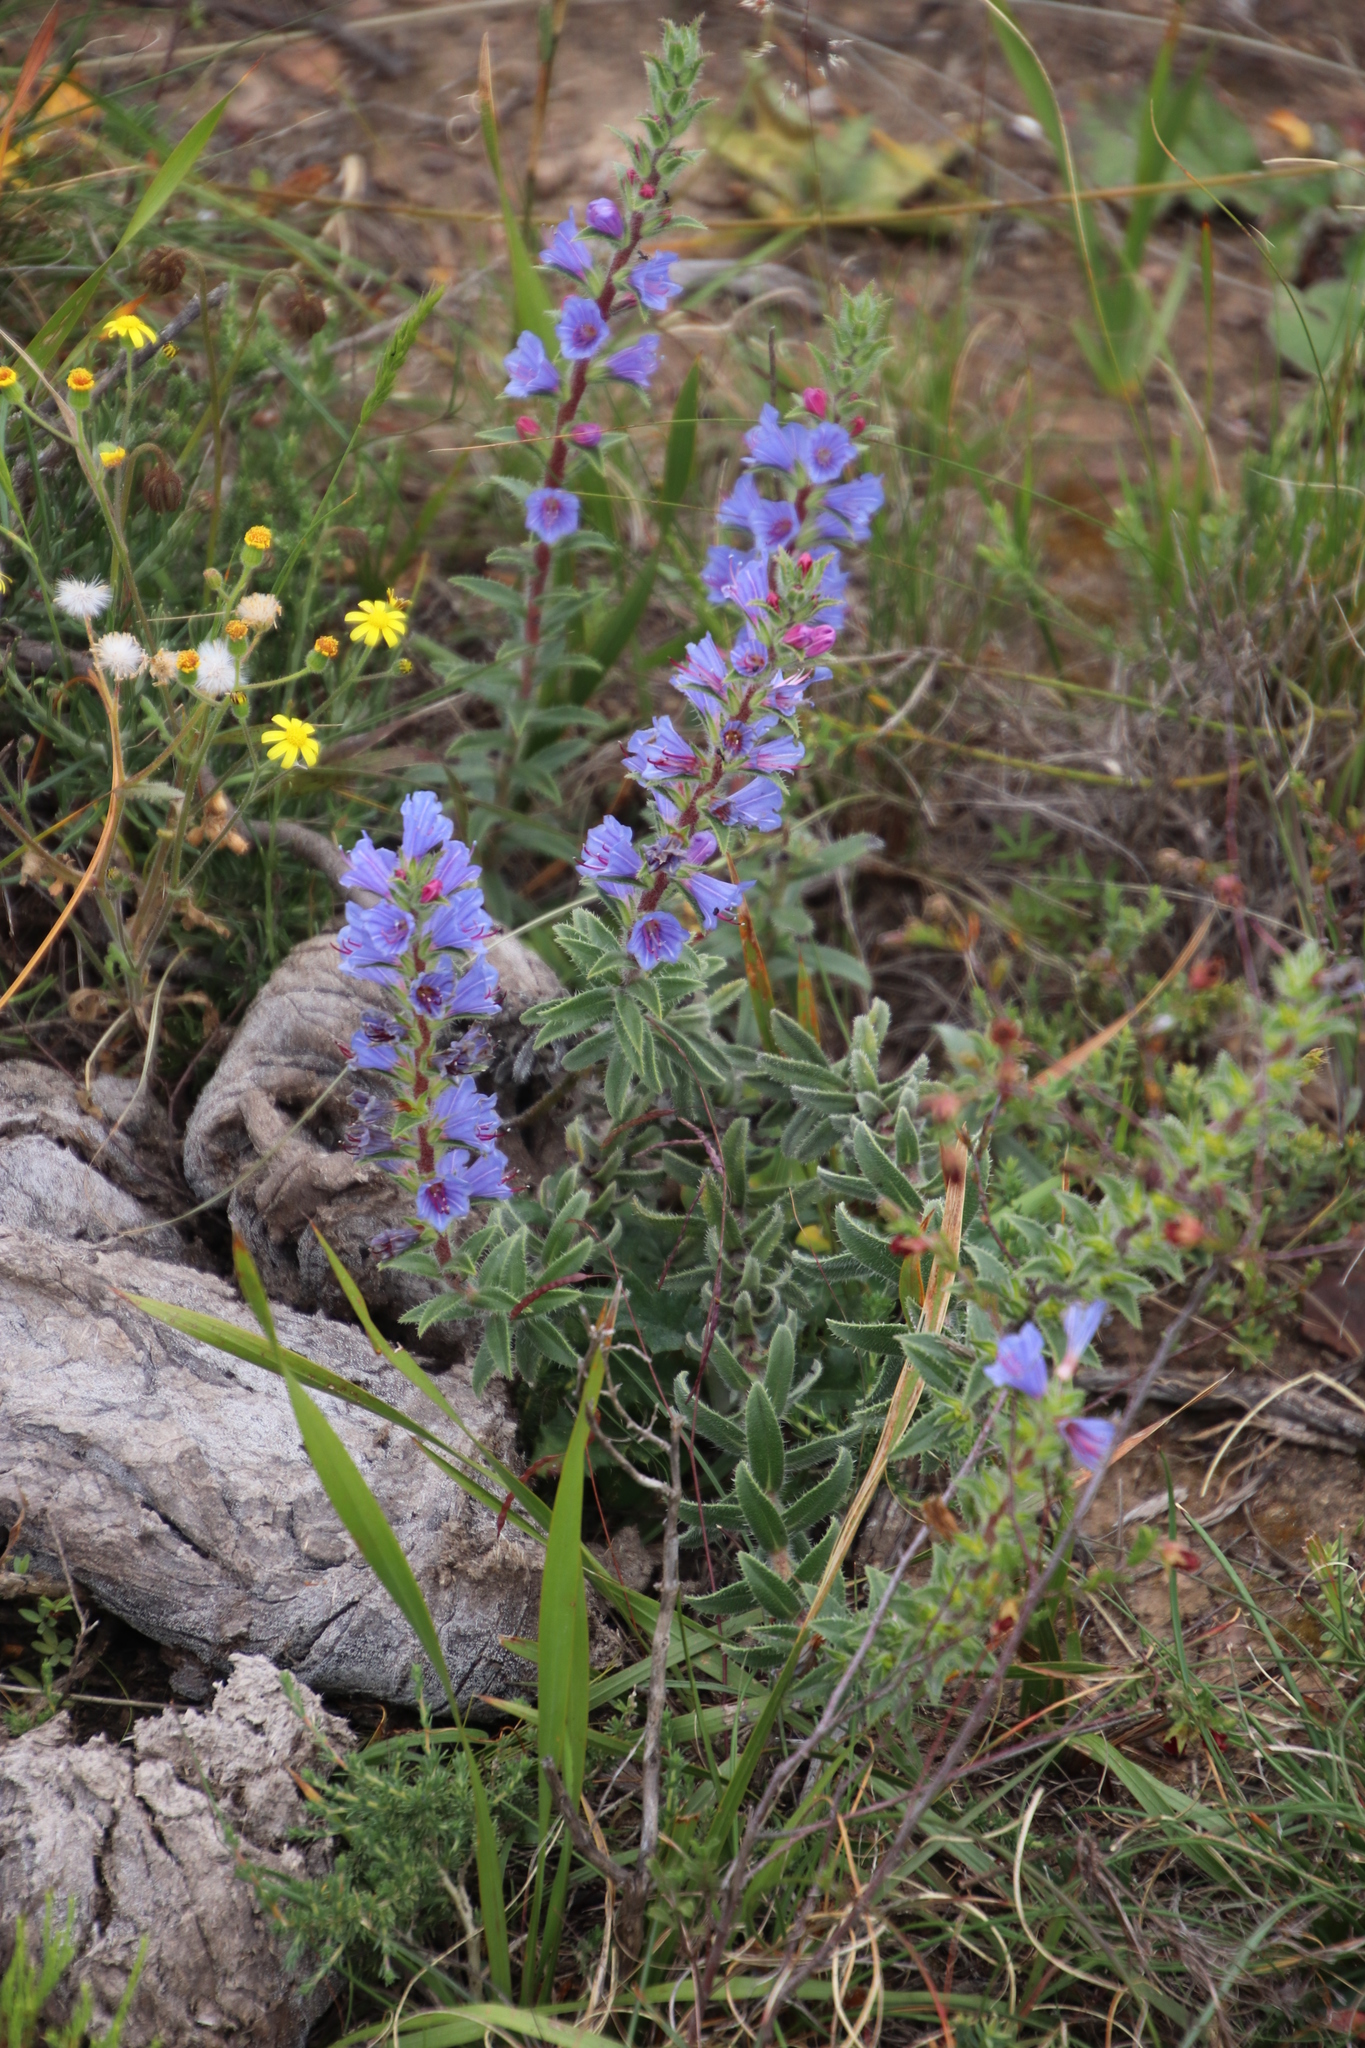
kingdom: Plantae
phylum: Tracheophyta
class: Magnoliopsida
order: Boraginales
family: Boraginaceae
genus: Lobostemon
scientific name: Lobostemon argenteus
